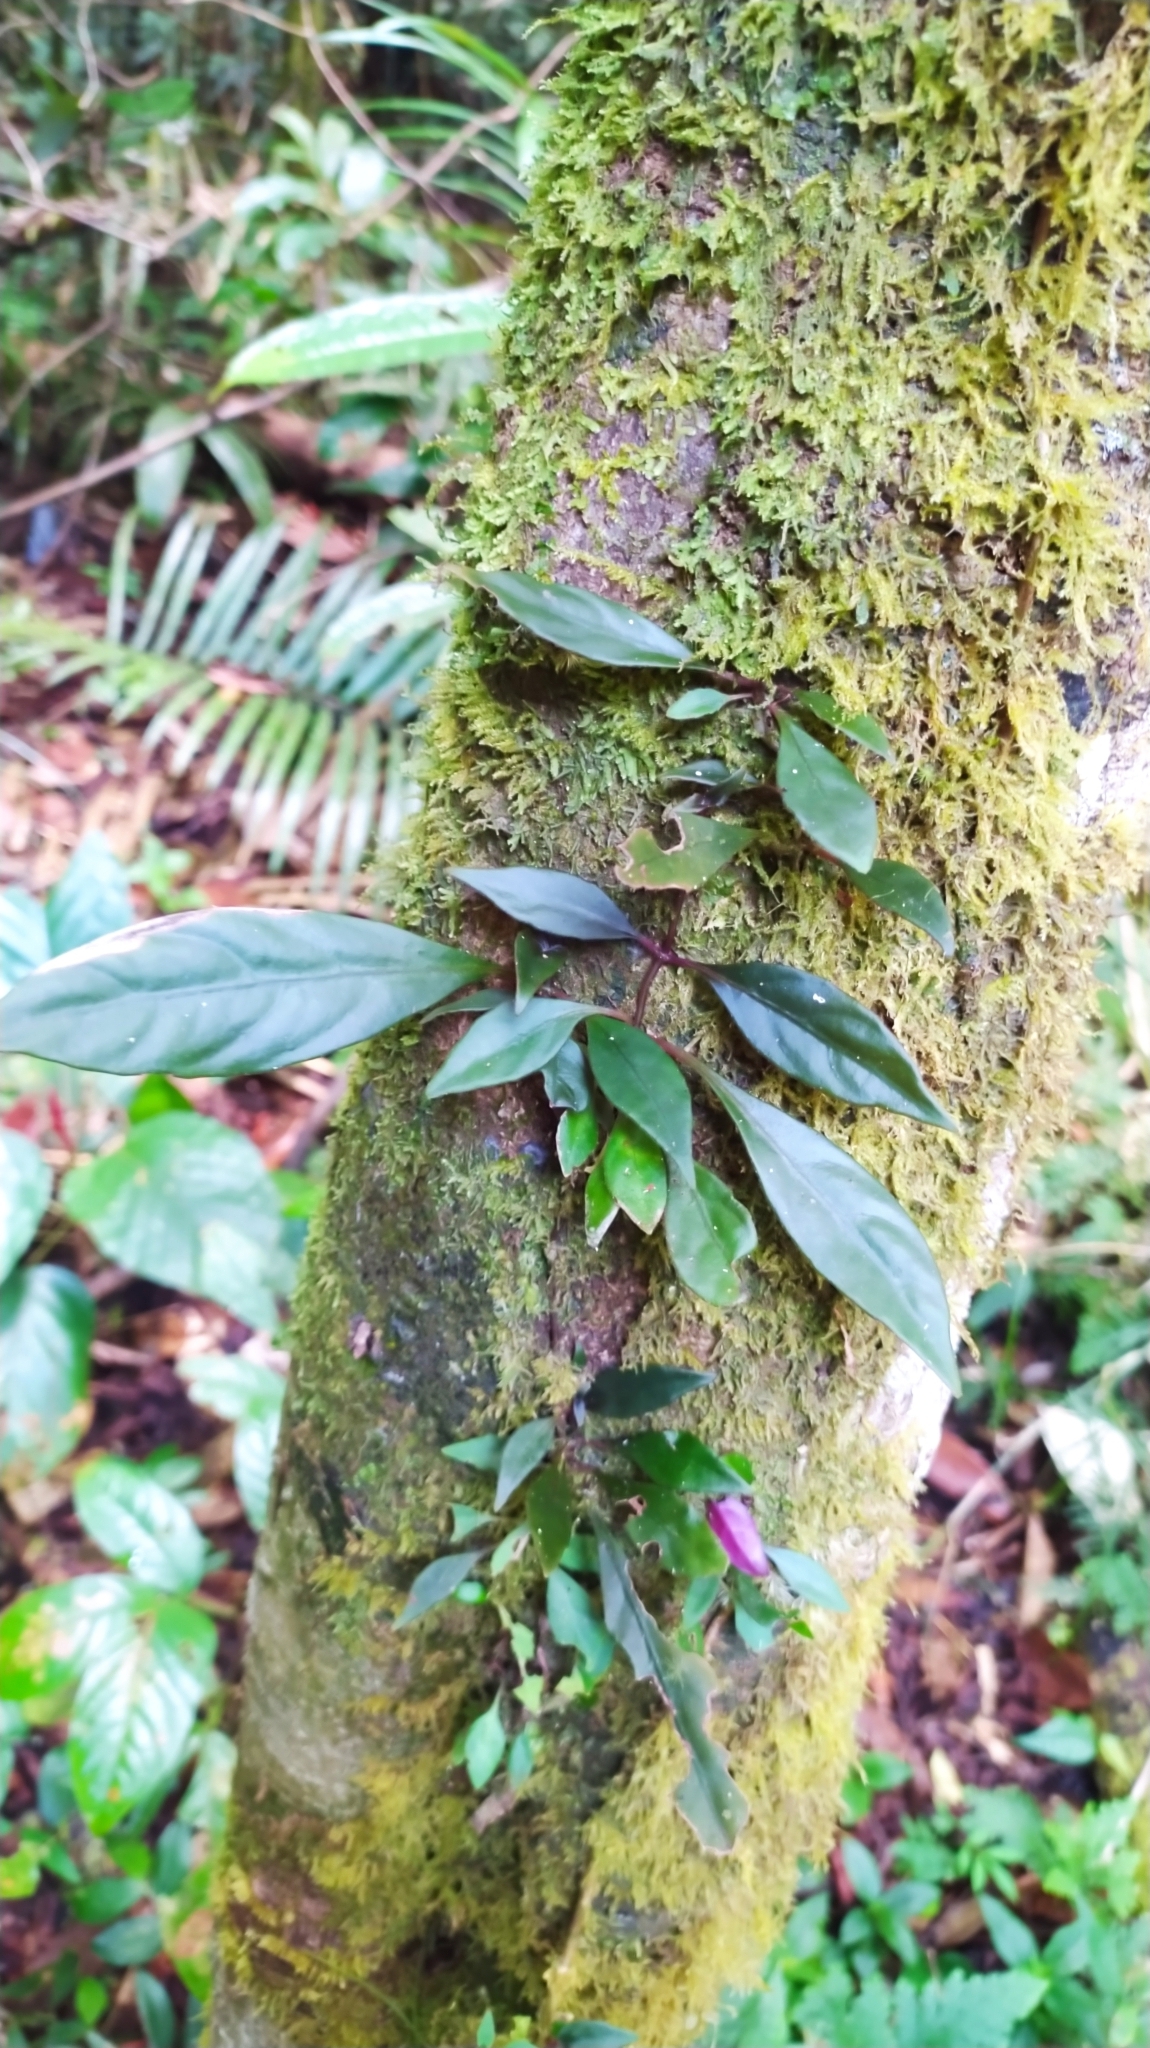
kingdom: Plantae
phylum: Tracheophyta
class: Magnoliopsida
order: Lamiales
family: Gesneriaceae
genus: Drymonia
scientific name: Drymonia coccinea
